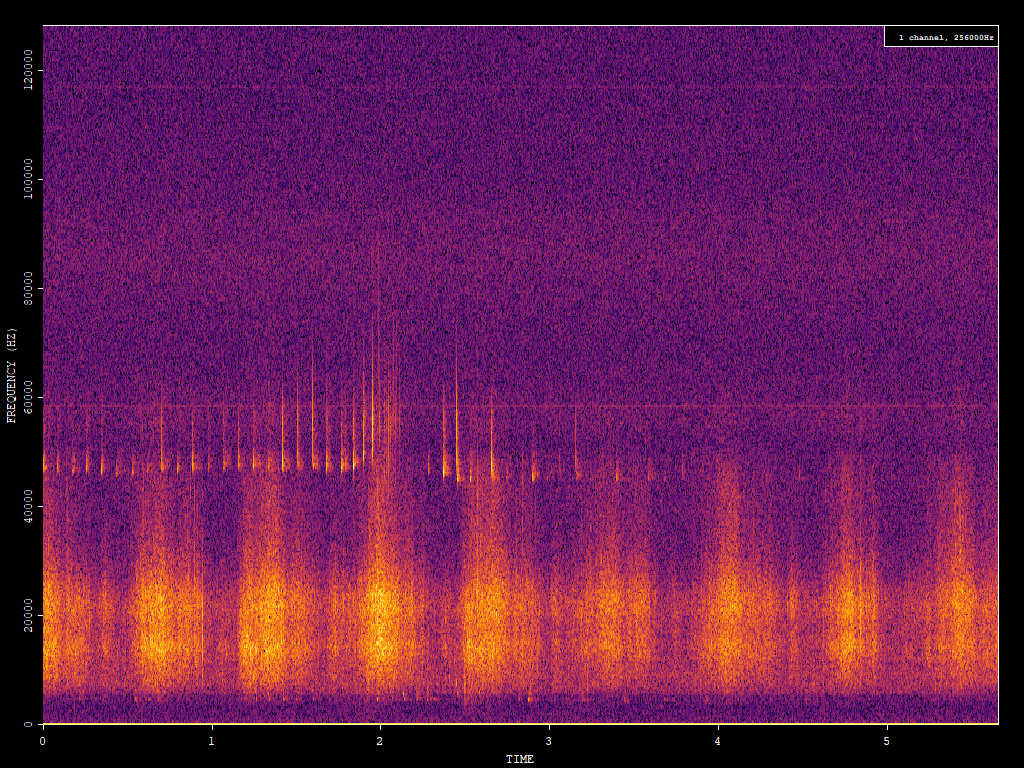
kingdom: Animalia
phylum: Chordata
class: Mammalia
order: Chiroptera
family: Vespertilionidae
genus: Pipistrellus
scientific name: Pipistrellus pipistrellus
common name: Common pipistrelle
